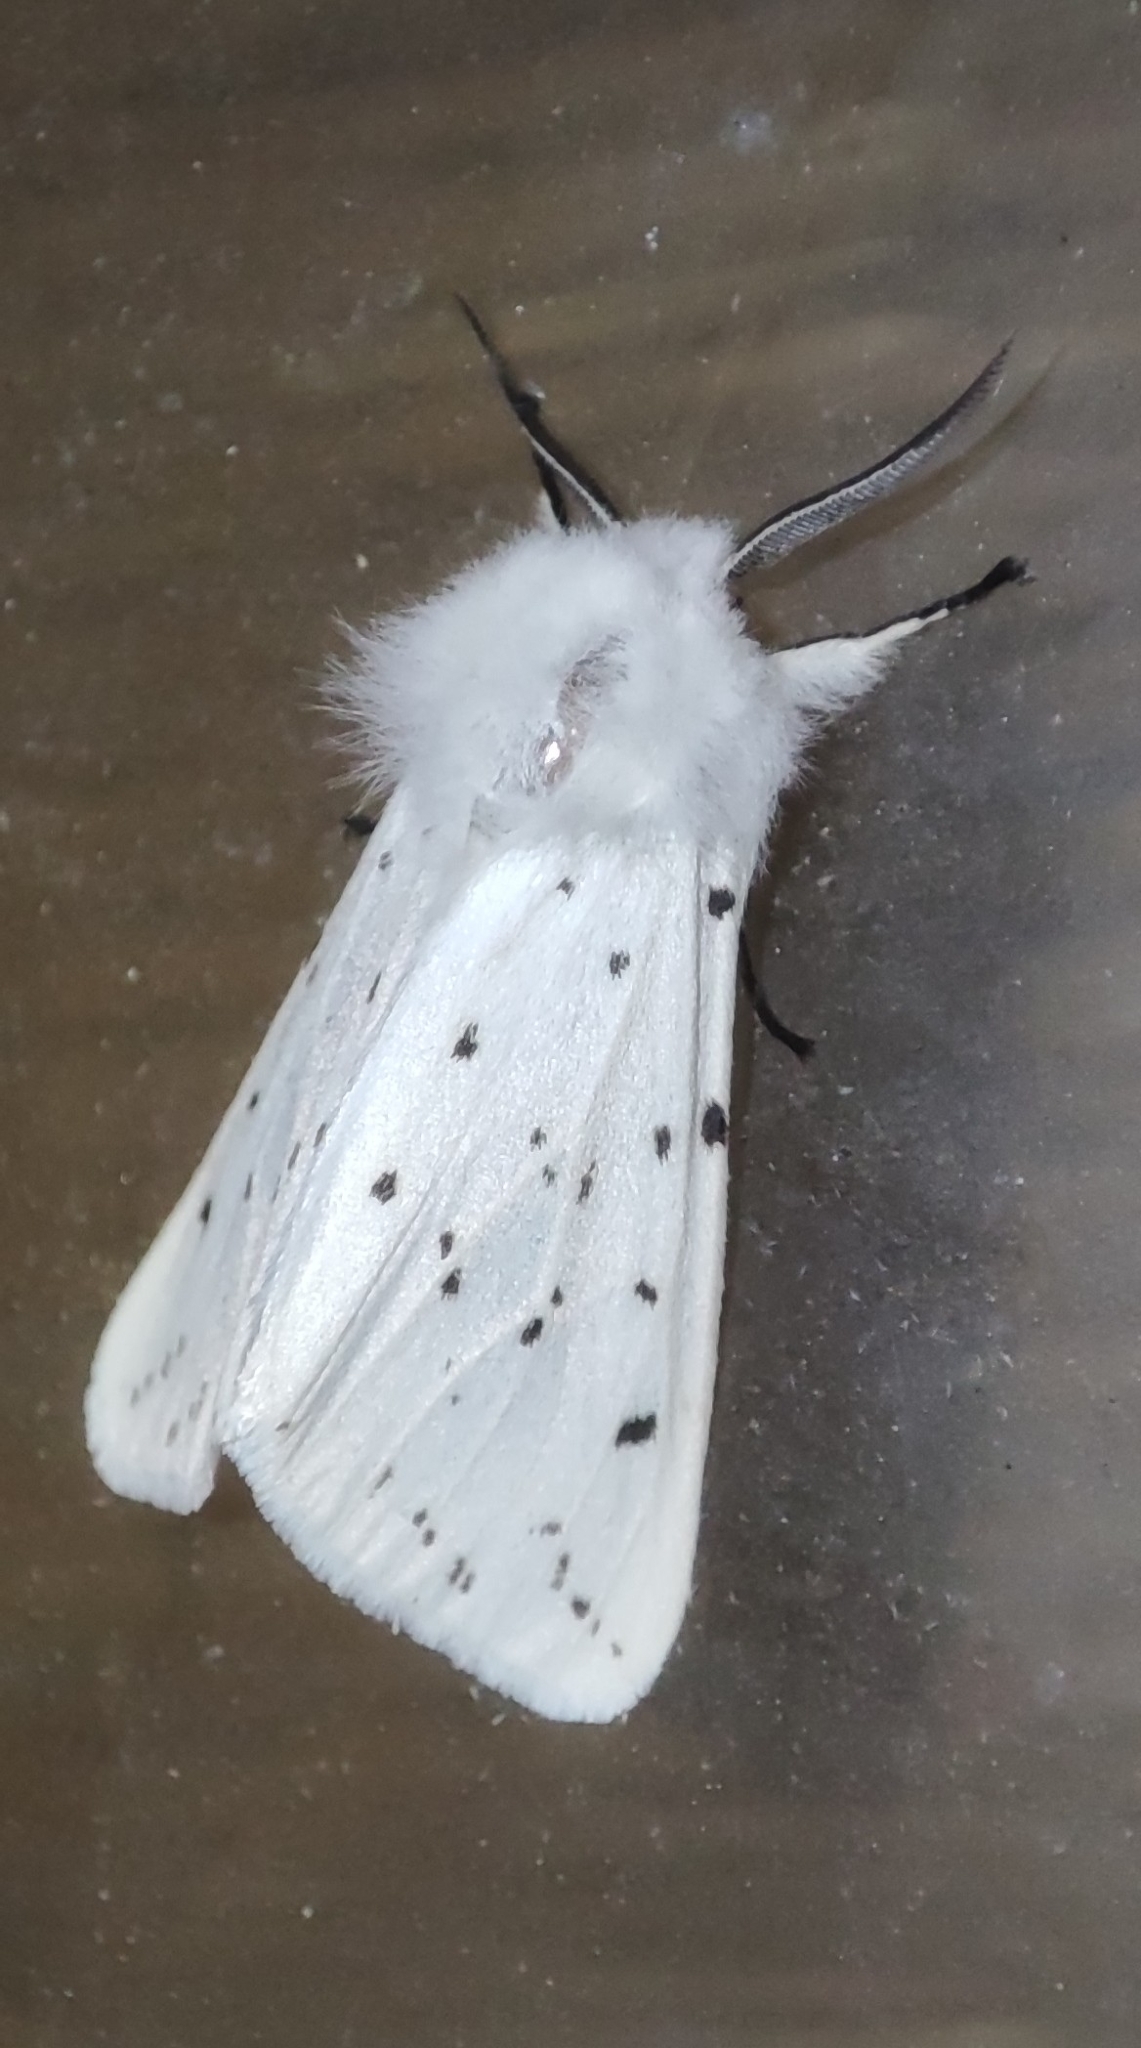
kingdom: Animalia
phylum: Arthropoda
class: Insecta
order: Lepidoptera
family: Erebidae
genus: Spilosoma
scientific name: Spilosoma lubricipeda
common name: White ermine
